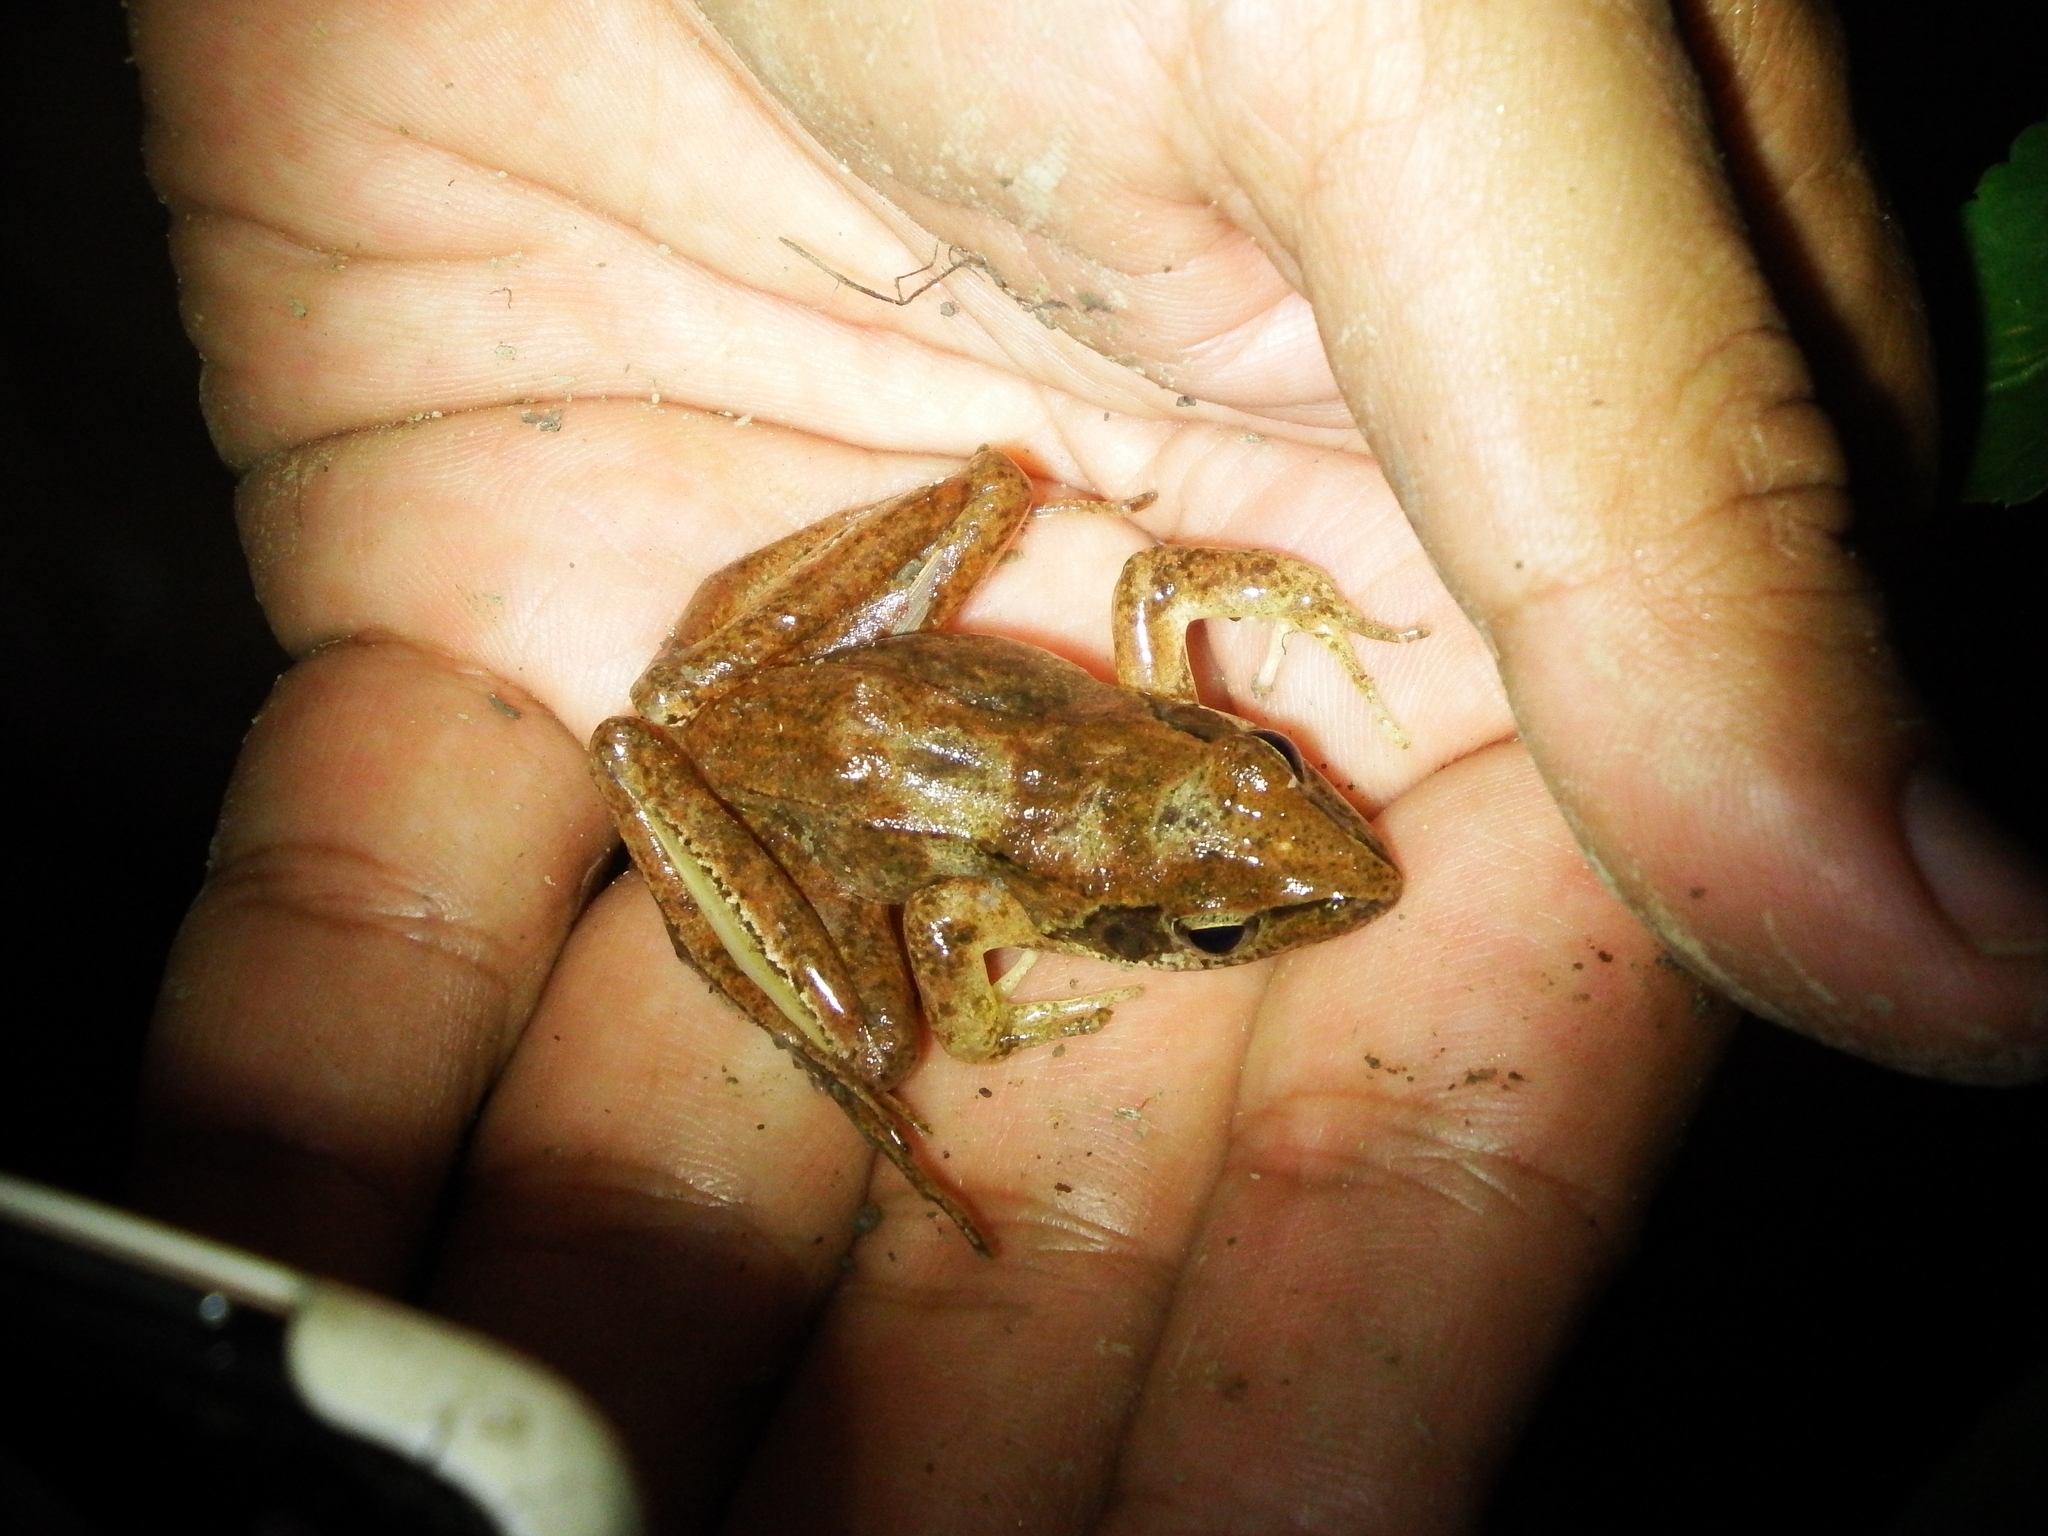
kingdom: Animalia
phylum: Chordata
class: Amphibia
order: Anura
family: Ranidae
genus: Rana
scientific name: Rana longicrus
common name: Long-legged brown frog
